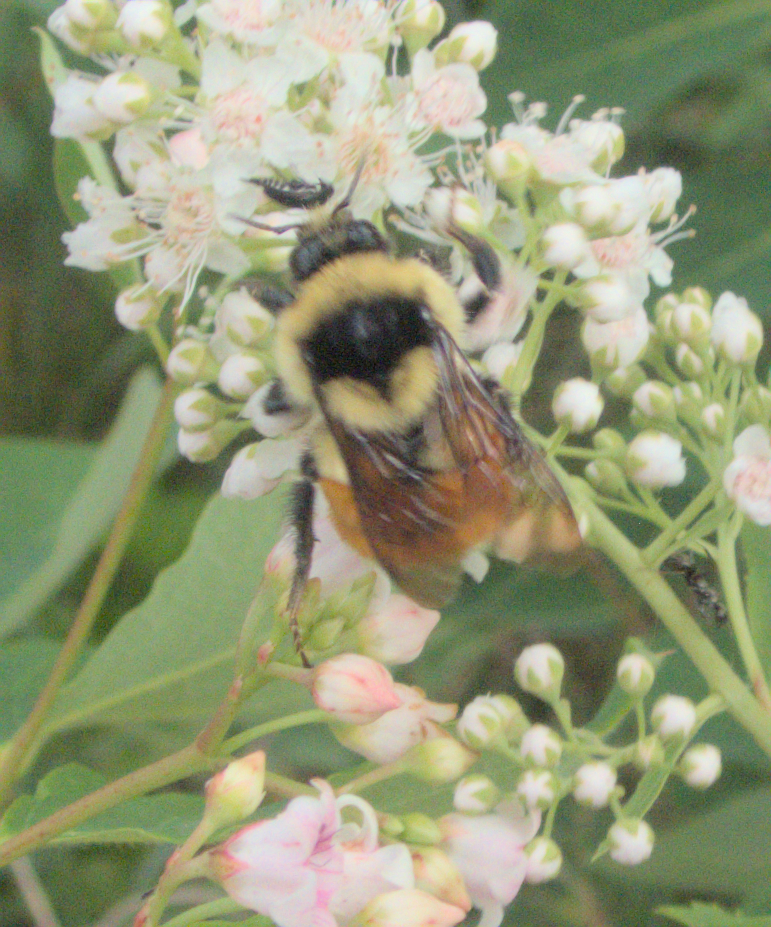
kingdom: Animalia
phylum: Arthropoda
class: Insecta
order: Hymenoptera
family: Apidae
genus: Bombus
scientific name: Bombus ternarius
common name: Tri-colored bumble bee
